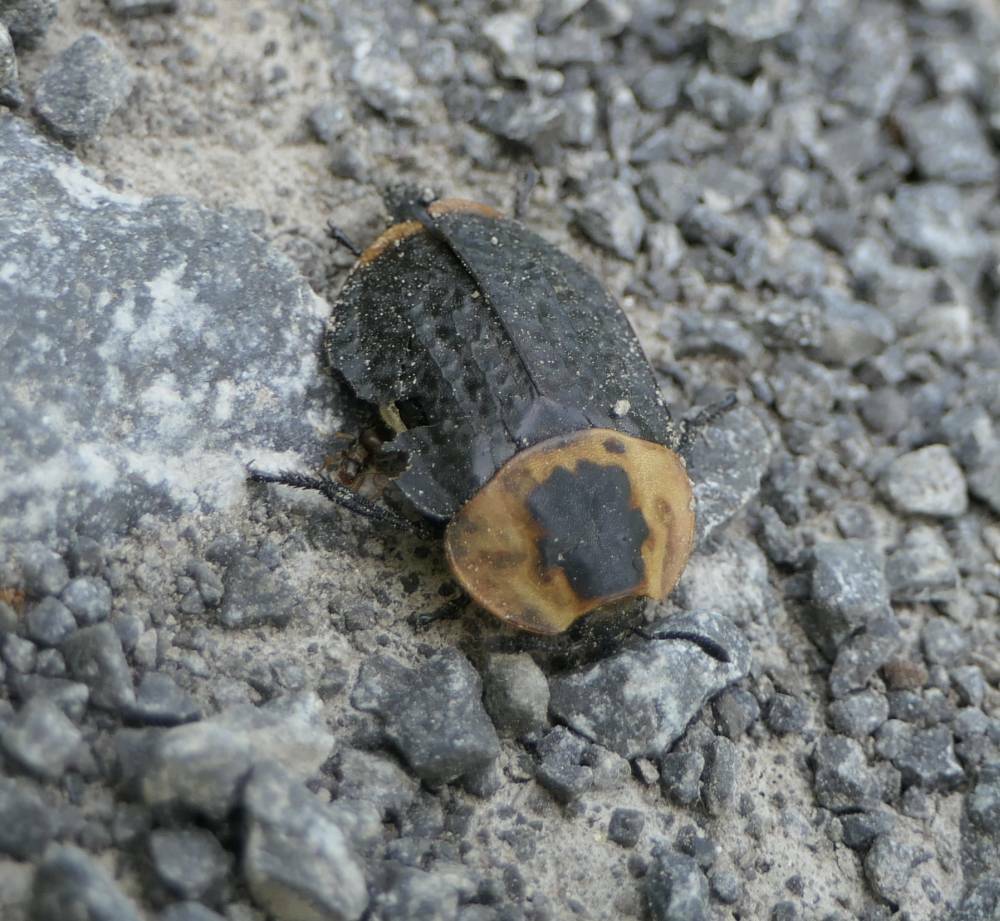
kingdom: Animalia
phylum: Arthropoda
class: Insecta
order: Coleoptera
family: Staphylinidae
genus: Necrophila
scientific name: Necrophila americana
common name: American carrion beetle
